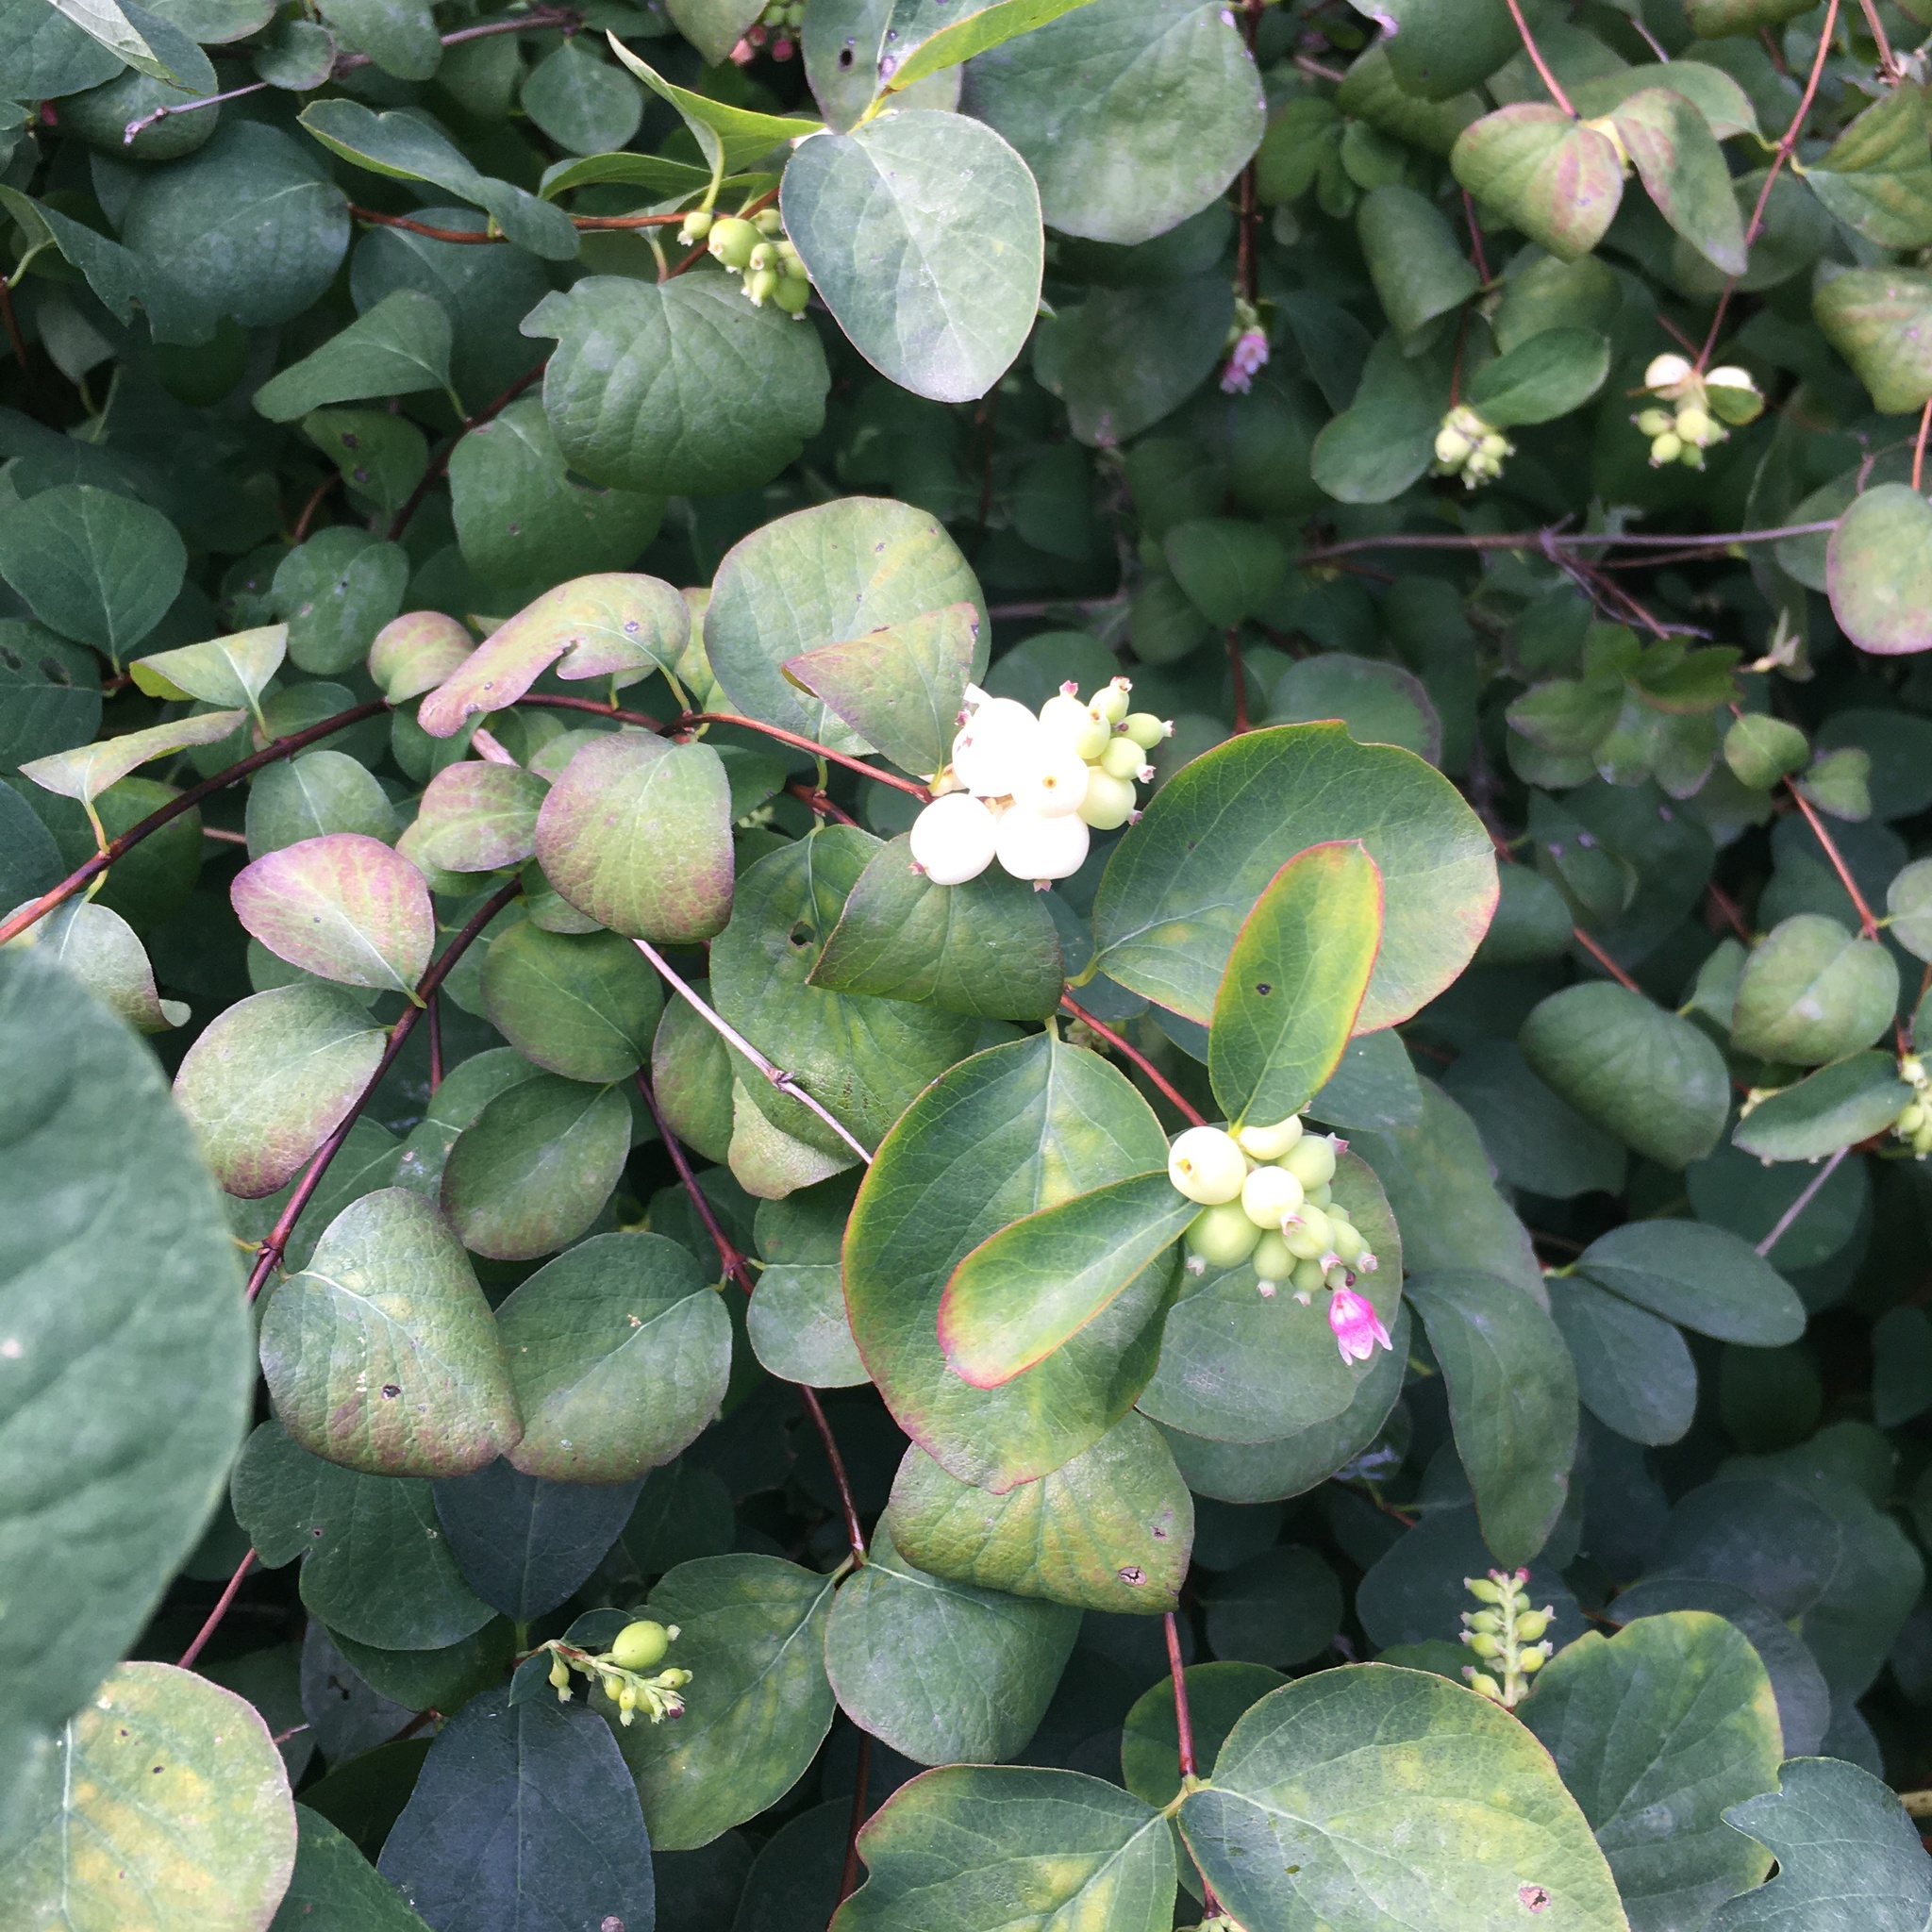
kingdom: Plantae
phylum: Tracheophyta
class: Magnoliopsida
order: Dipsacales
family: Caprifoliaceae
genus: Symphoricarpos
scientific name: Symphoricarpos albus
